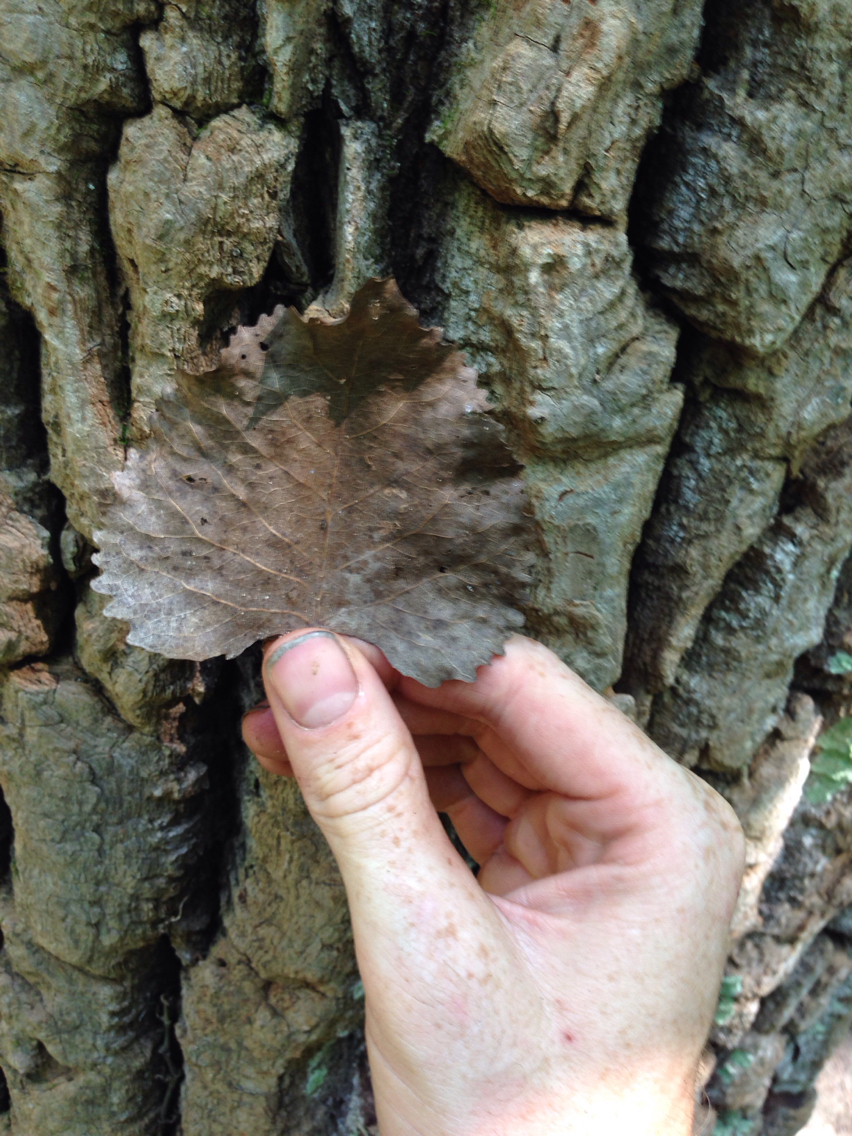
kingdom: Plantae
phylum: Tracheophyta
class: Magnoliopsida
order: Malpighiales
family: Salicaceae
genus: Populus
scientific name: Populus deltoides
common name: Eastern cottonwood
